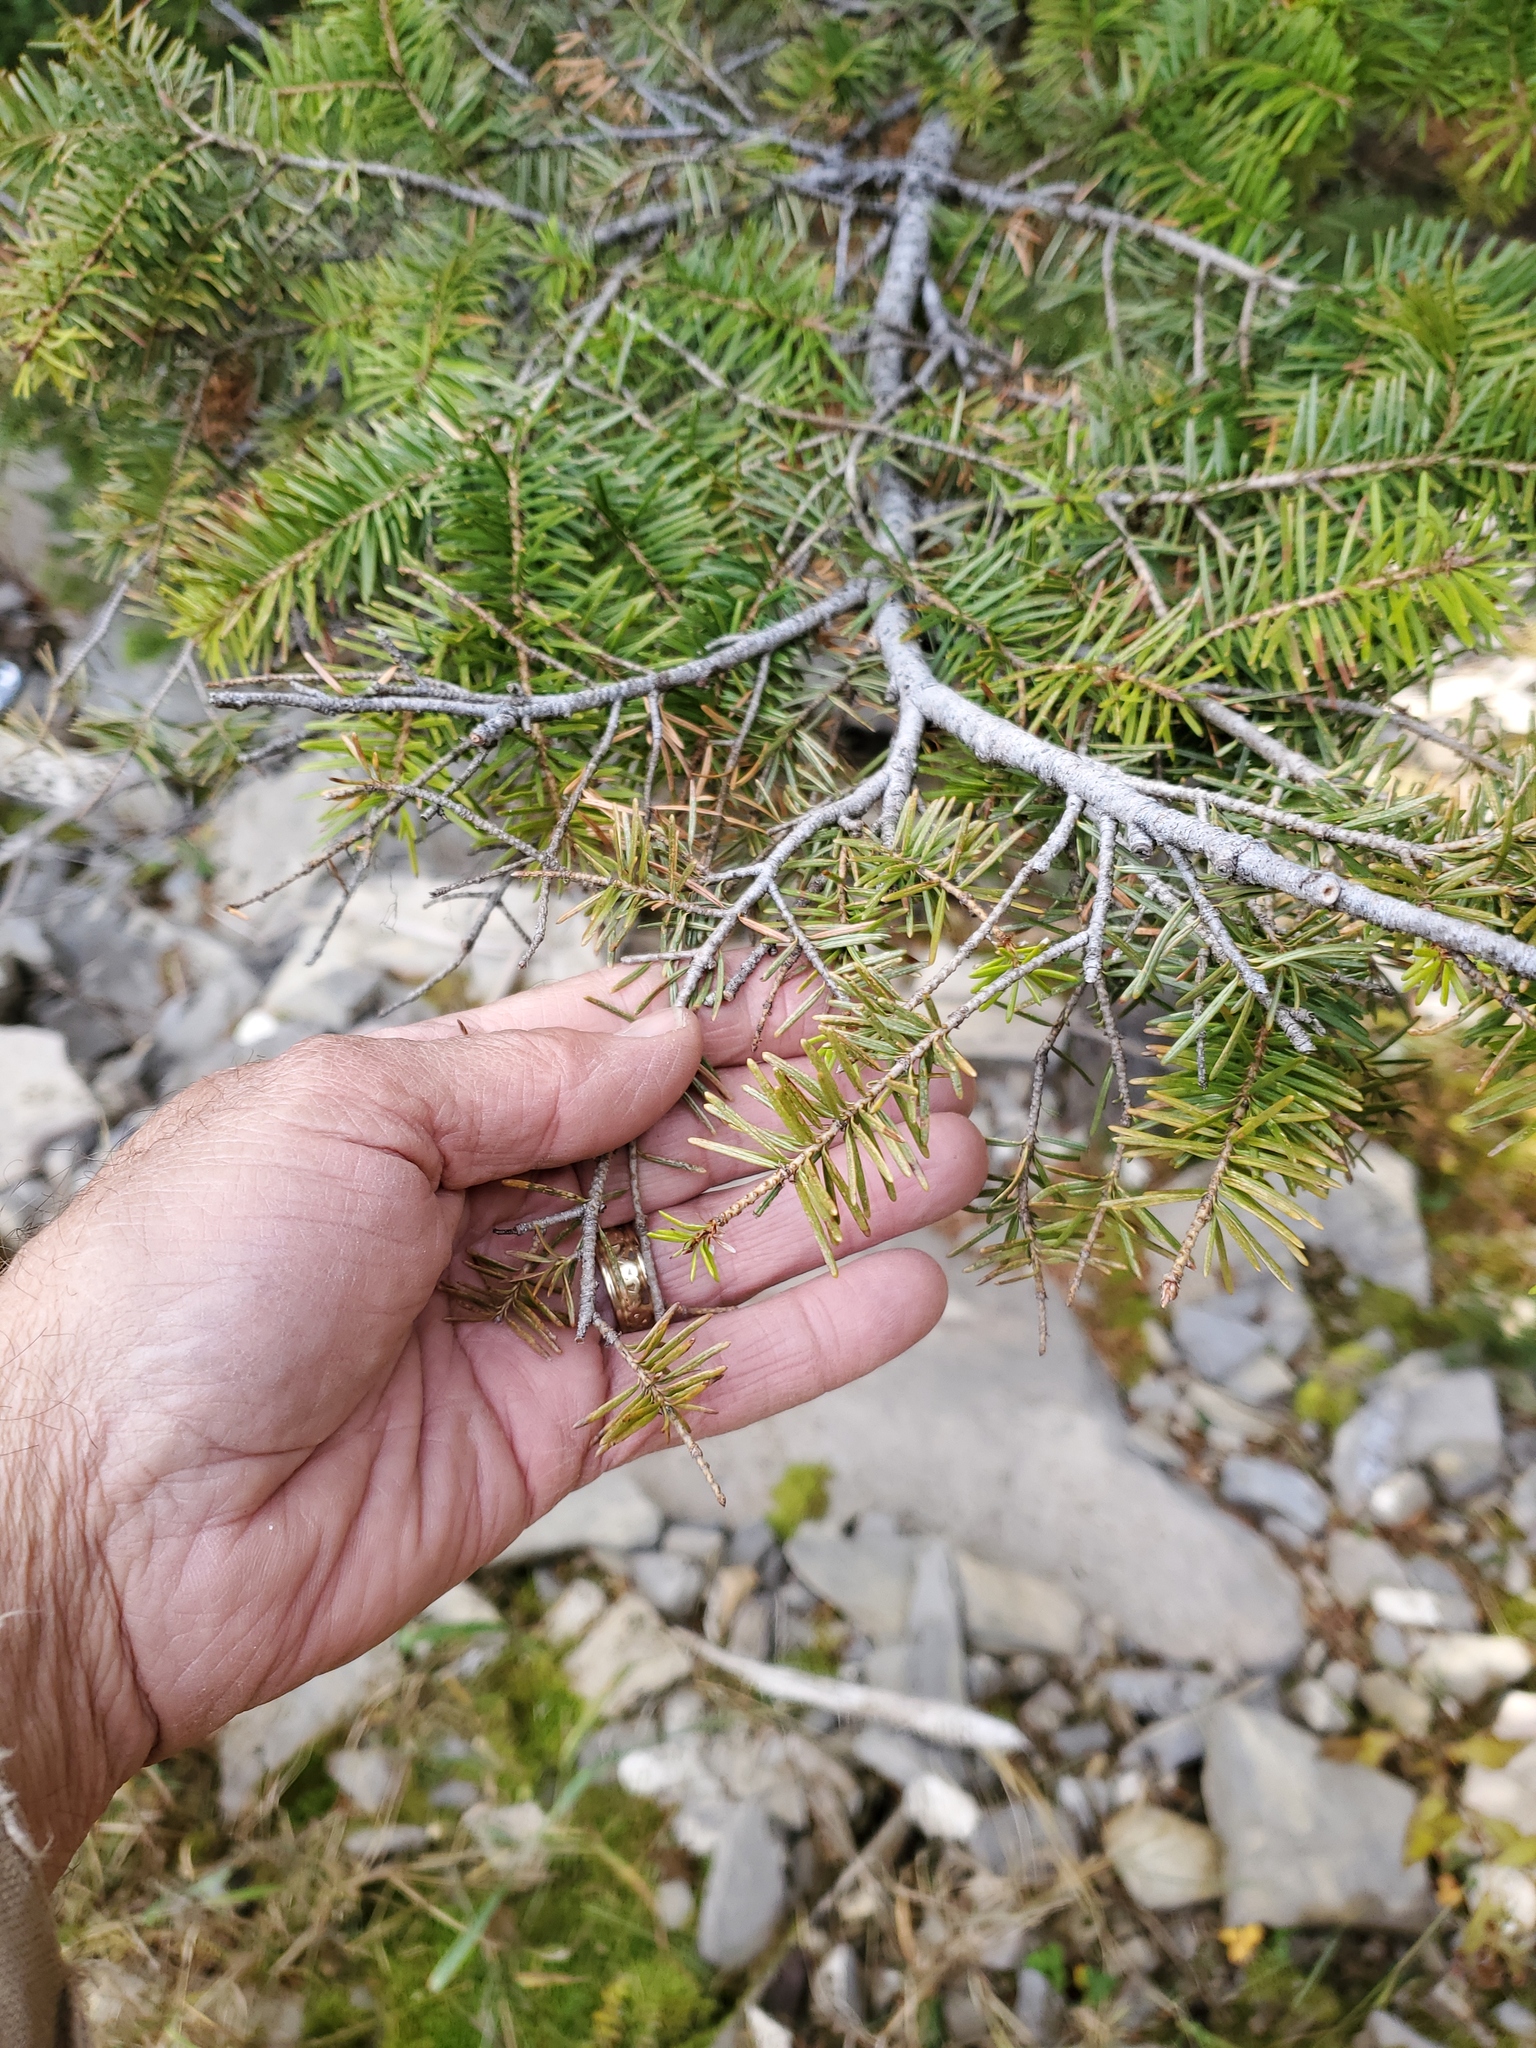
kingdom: Plantae
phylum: Tracheophyta
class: Pinopsida
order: Pinales
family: Pinaceae
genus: Pseudotsuga
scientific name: Pseudotsuga menziesii
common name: Douglas fir
